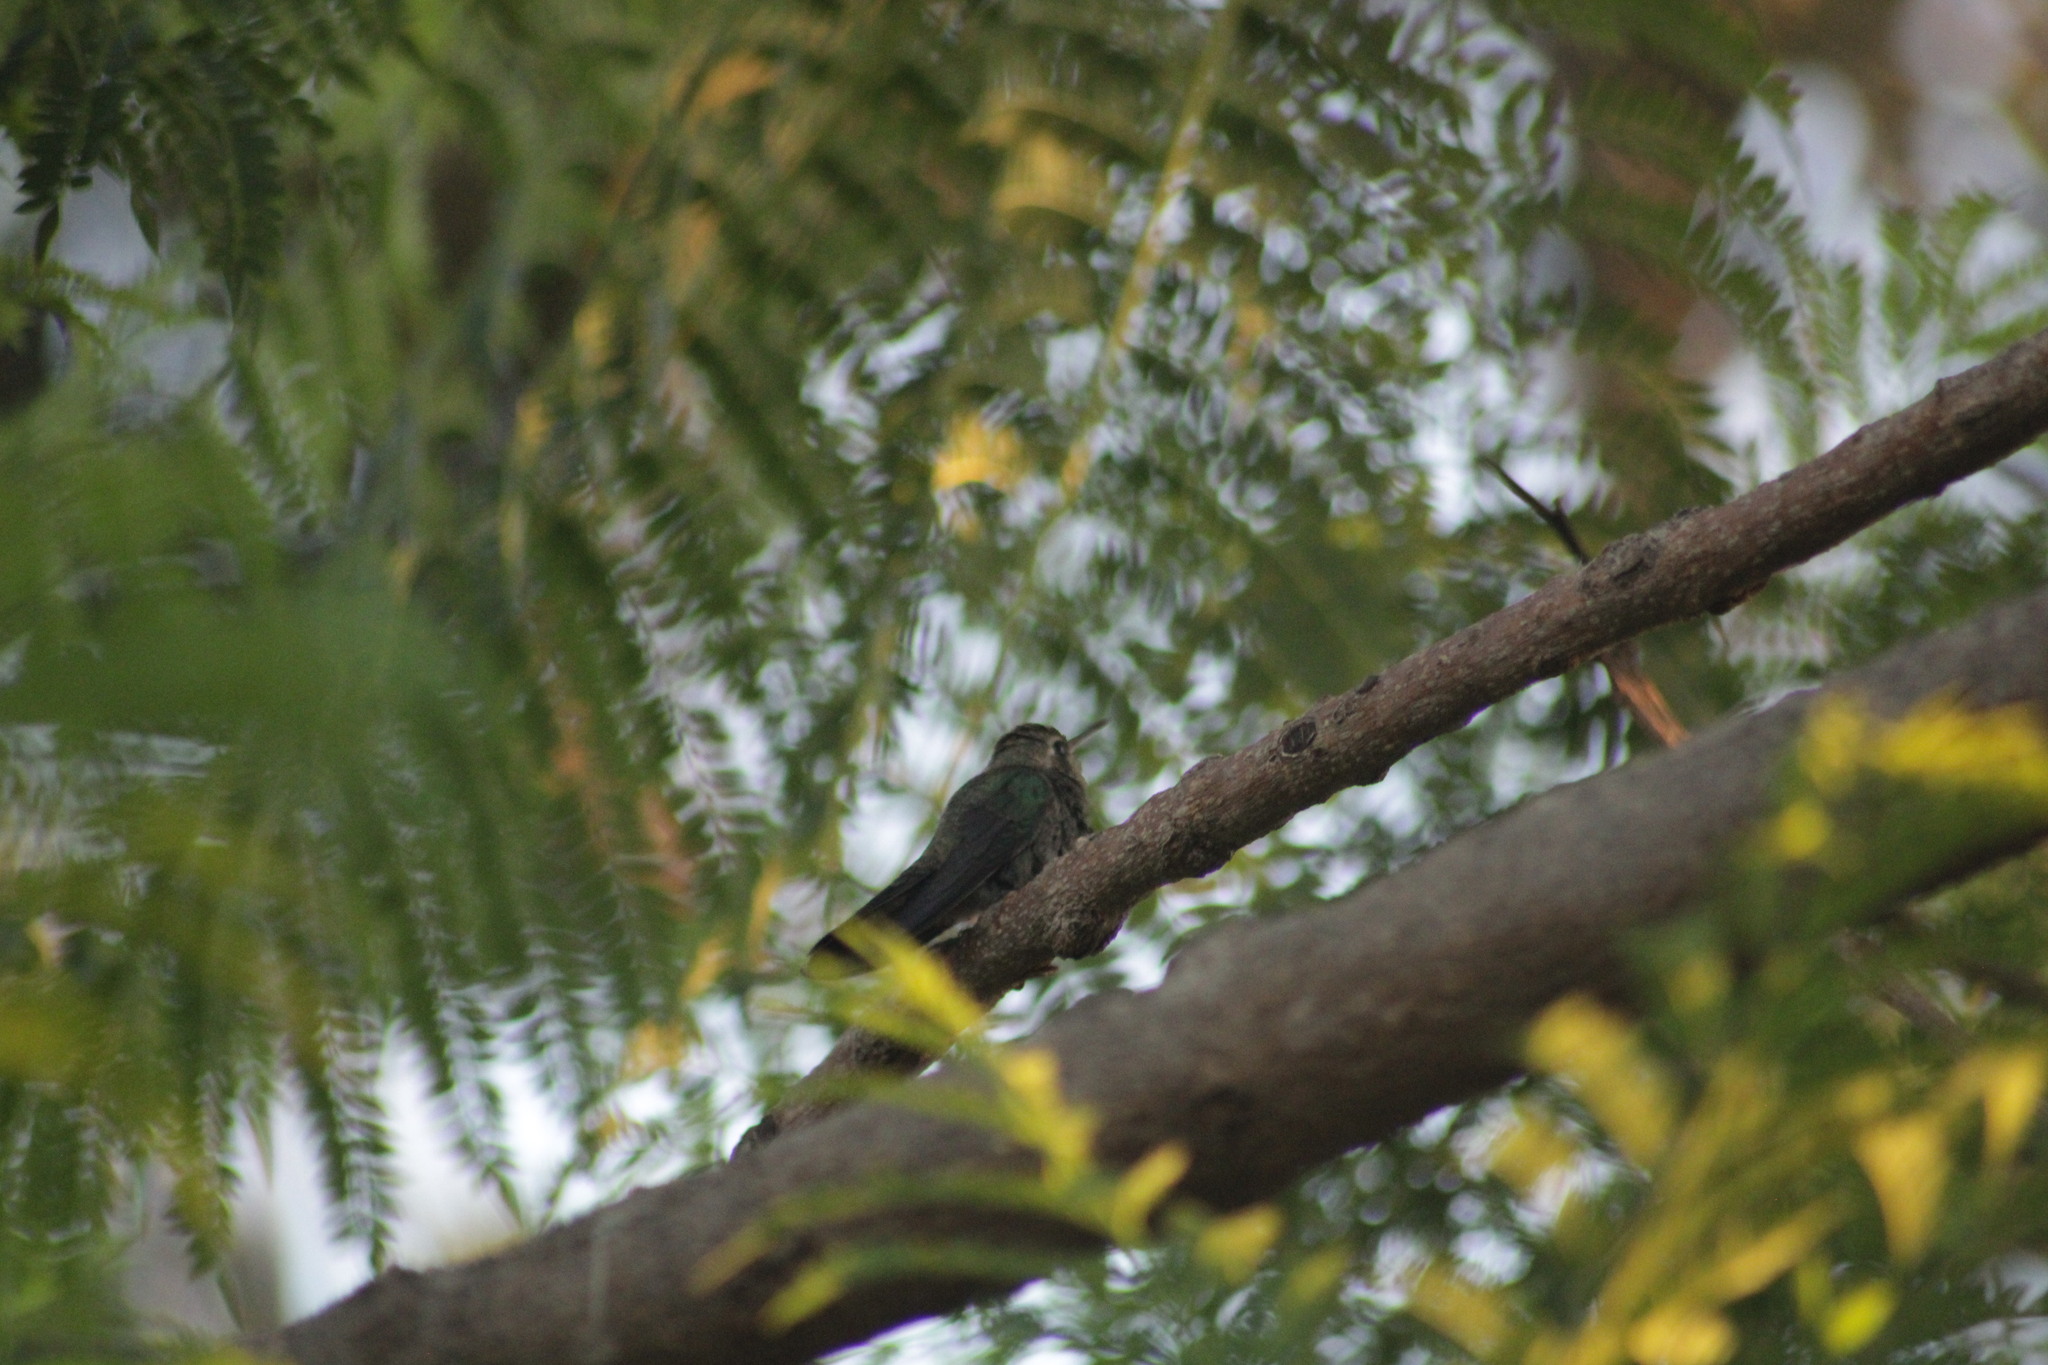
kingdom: Animalia
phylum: Chordata
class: Aves
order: Apodiformes
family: Trochilidae
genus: Cynanthus
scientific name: Cynanthus latirostris
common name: Broad-billed hummingbird
